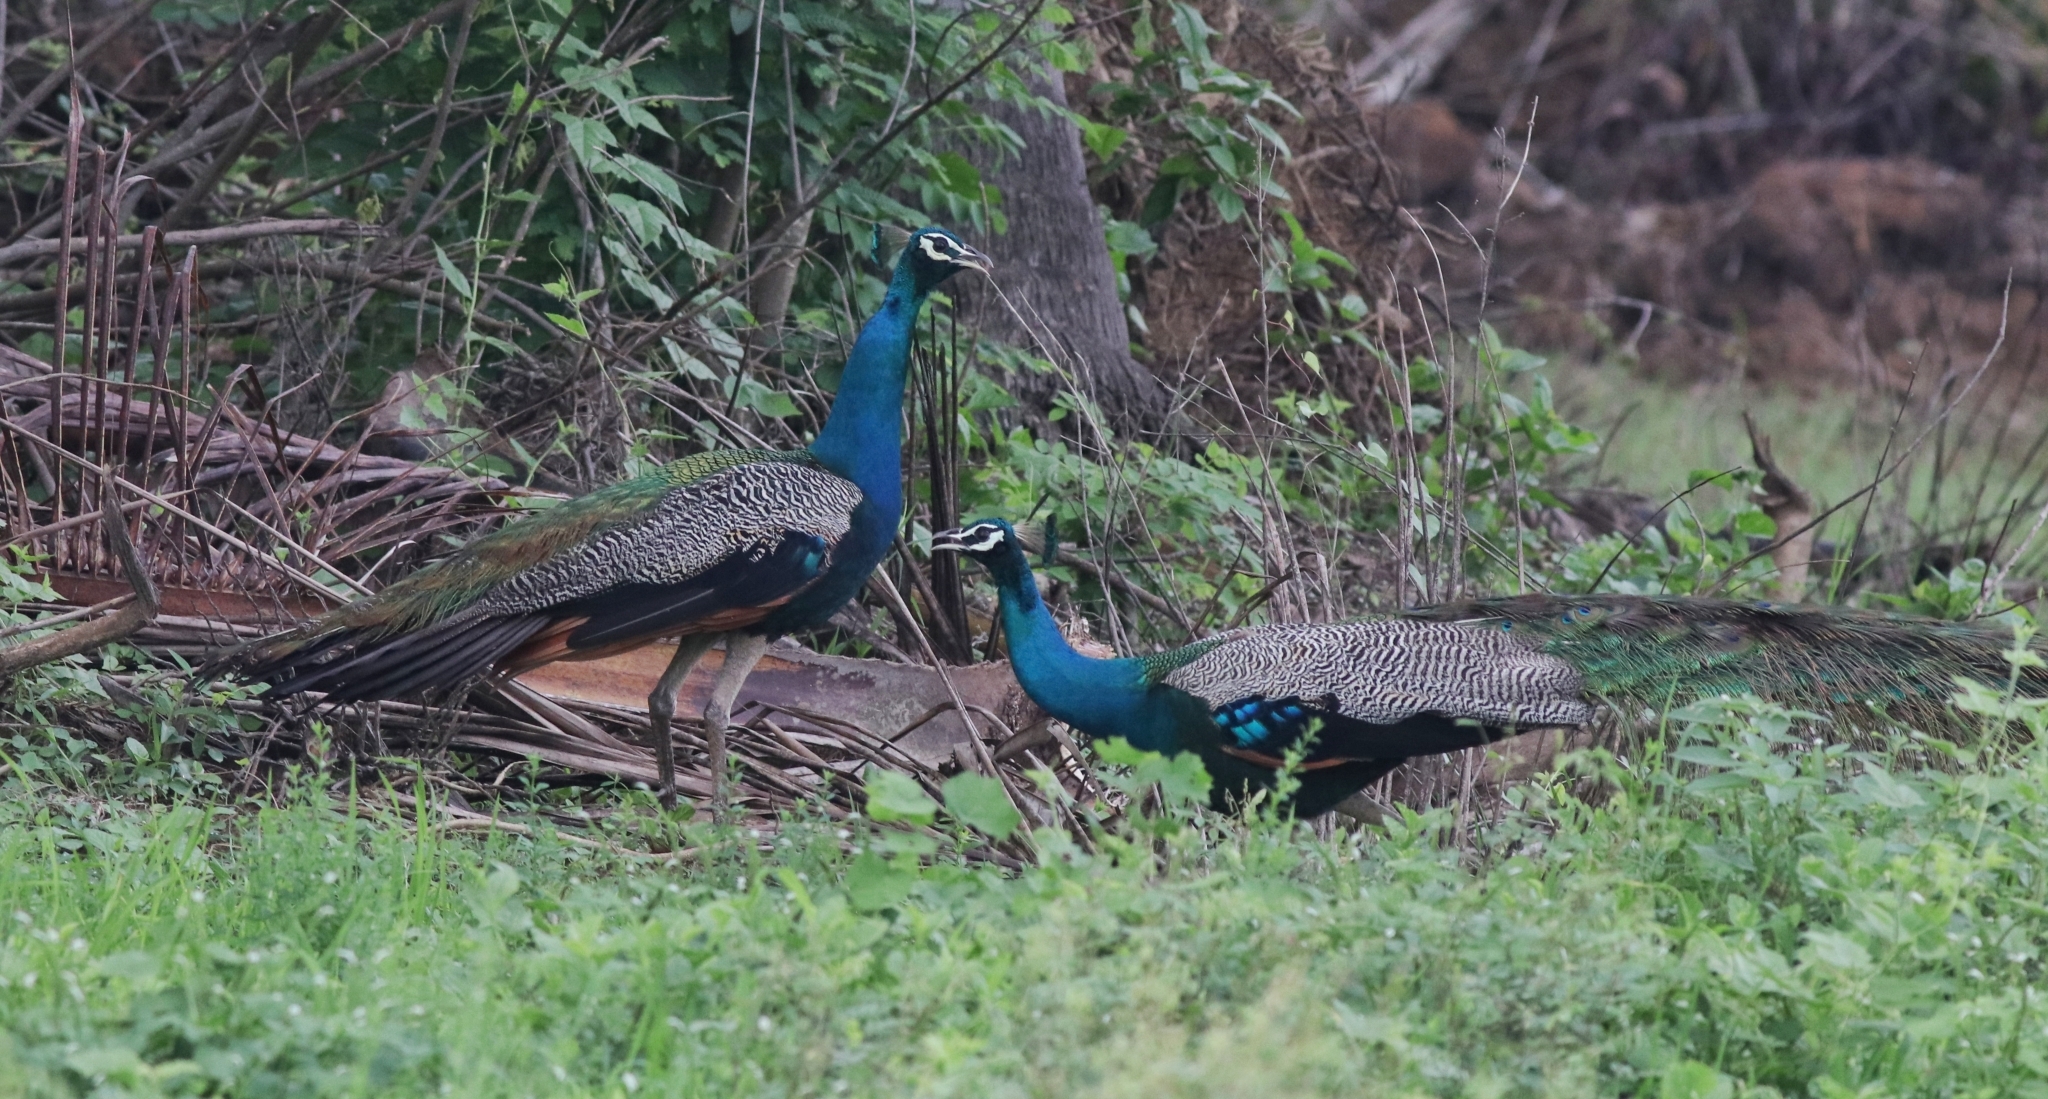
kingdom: Animalia
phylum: Chordata
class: Aves
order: Galliformes
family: Phasianidae
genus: Pavo
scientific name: Pavo cristatus
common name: Indian peafowl
